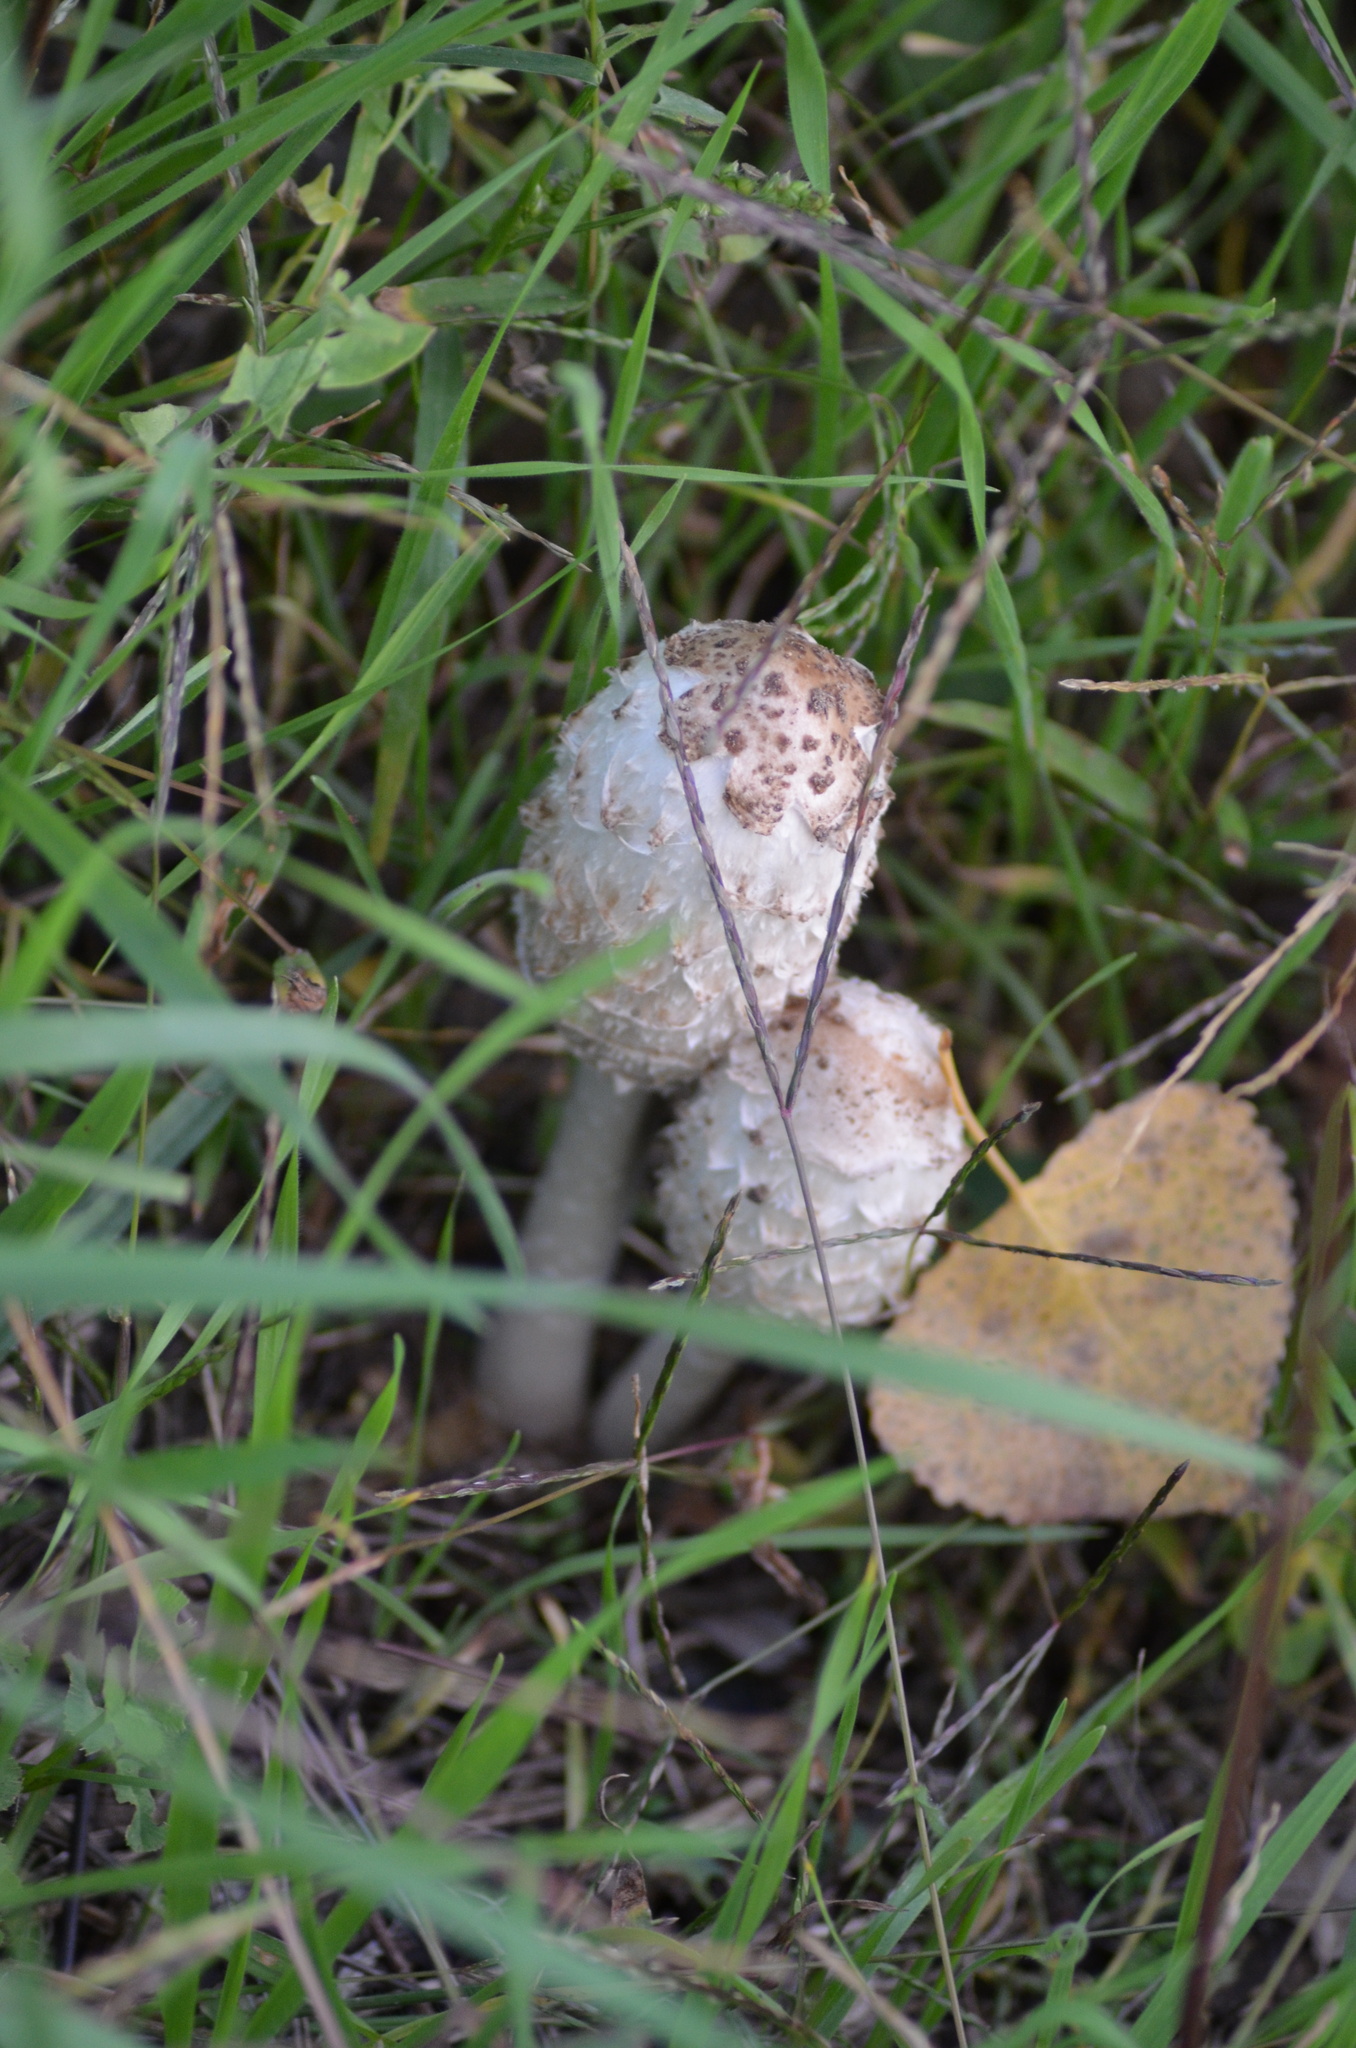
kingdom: Fungi
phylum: Basidiomycota
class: Agaricomycetes
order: Agaricales
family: Agaricaceae
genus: Coprinus
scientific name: Coprinus comatus
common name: Lawyer's wig
